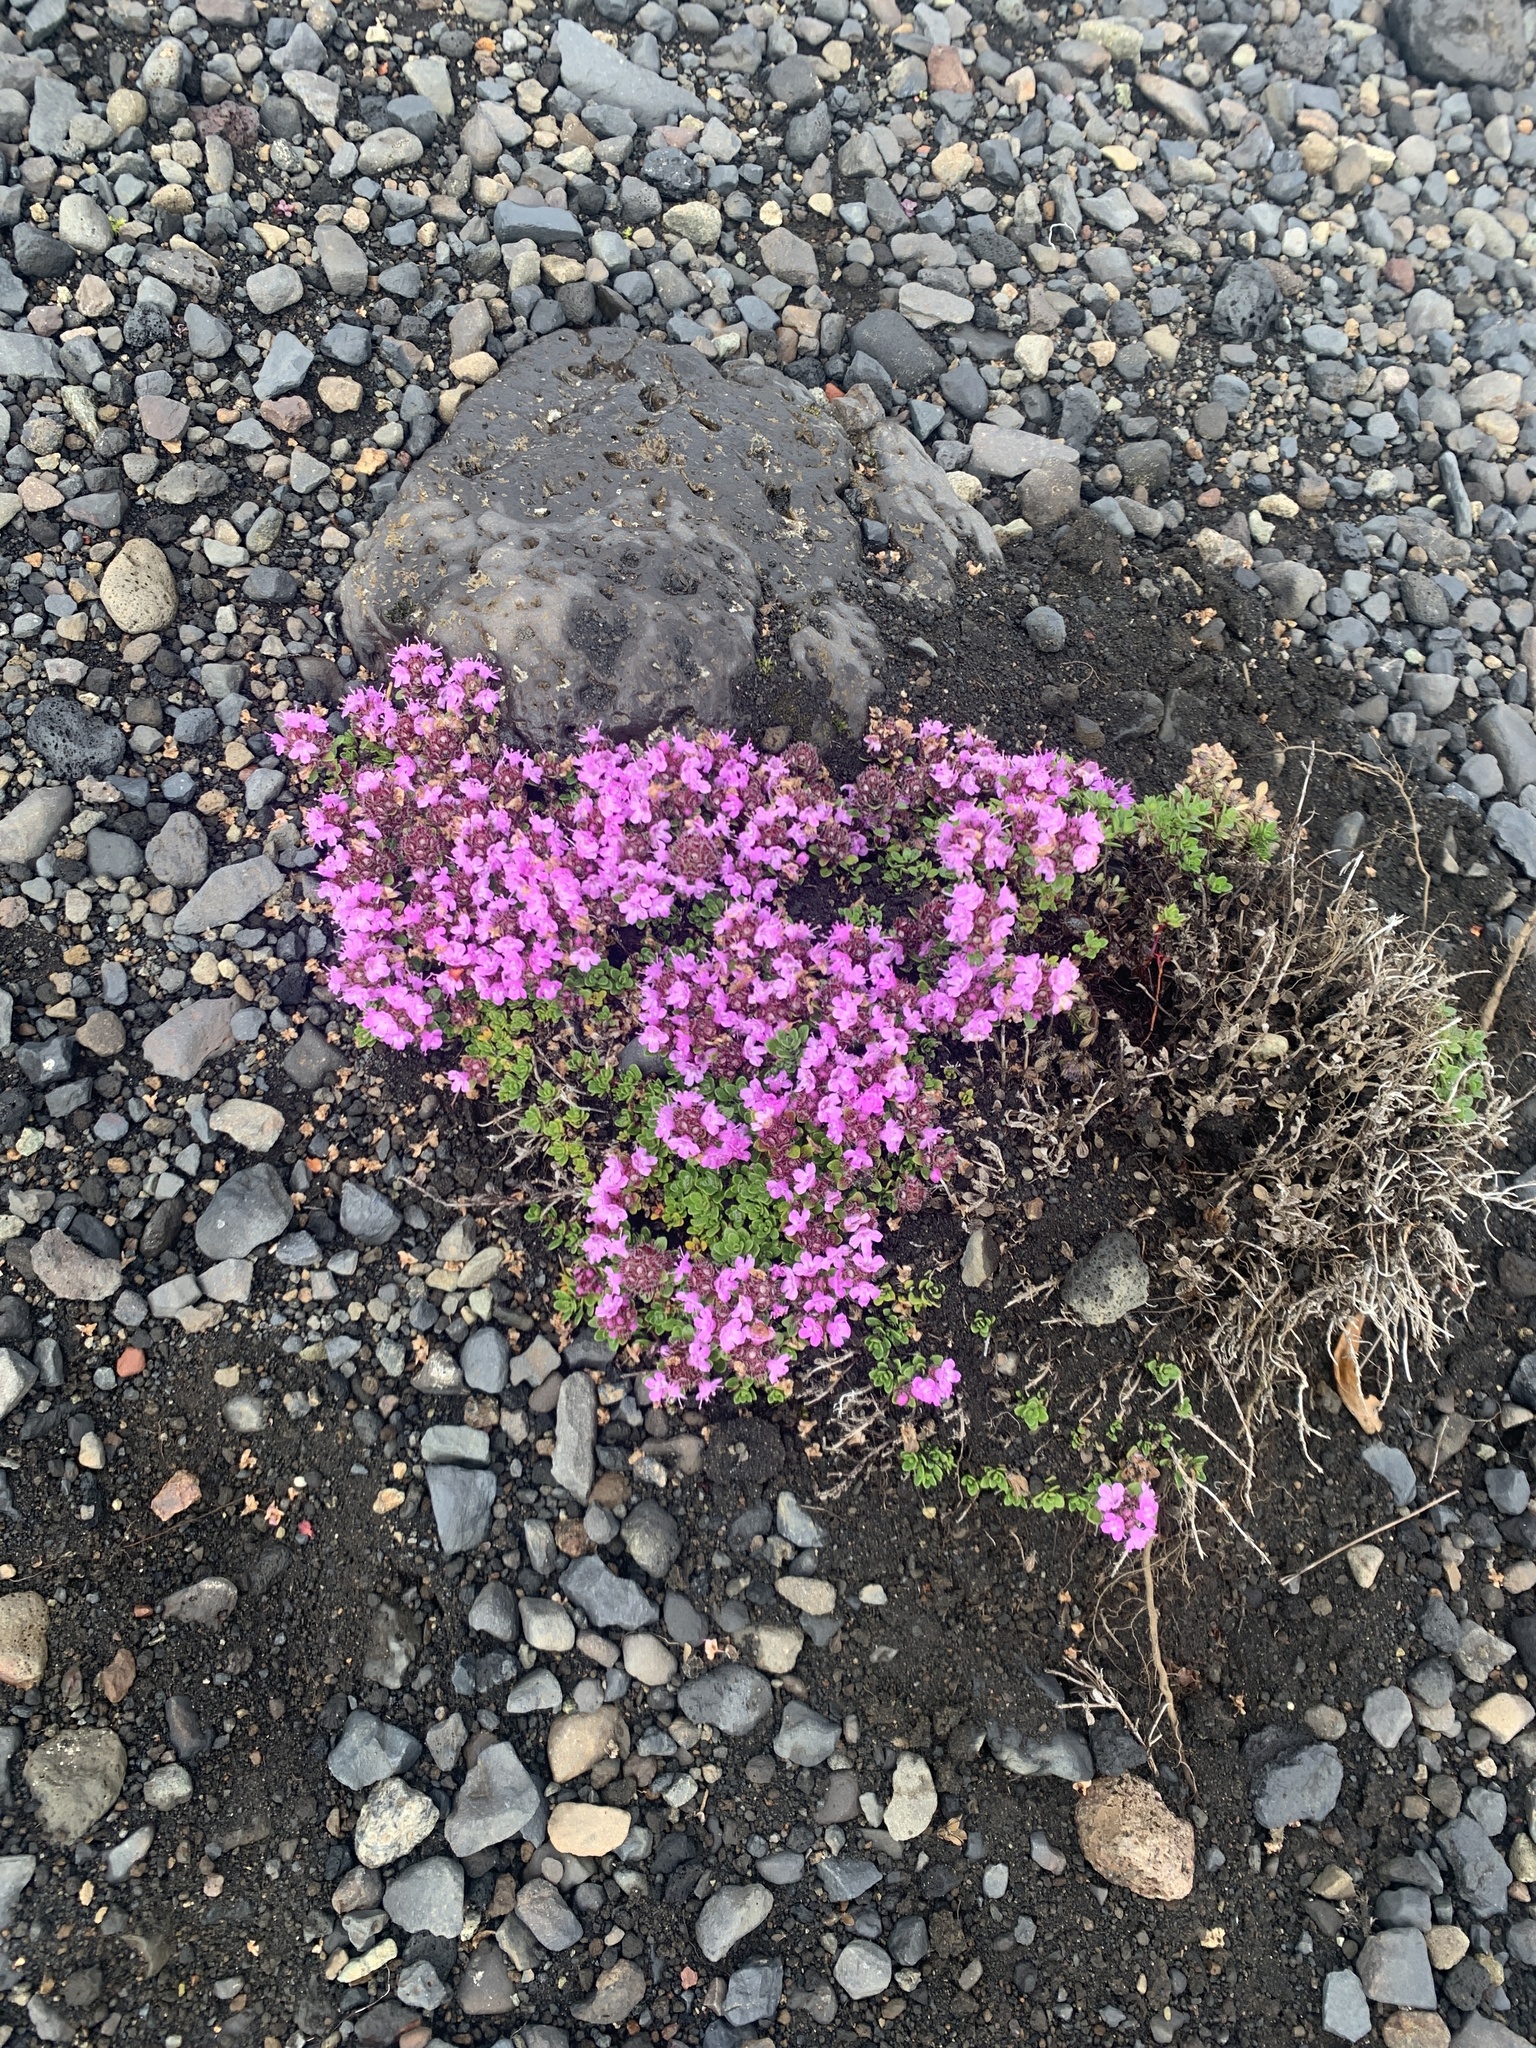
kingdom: Plantae
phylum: Tracheophyta
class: Magnoliopsida
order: Lamiales
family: Lamiaceae
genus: Thymus
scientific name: Thymus praecox
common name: Wild thyme
